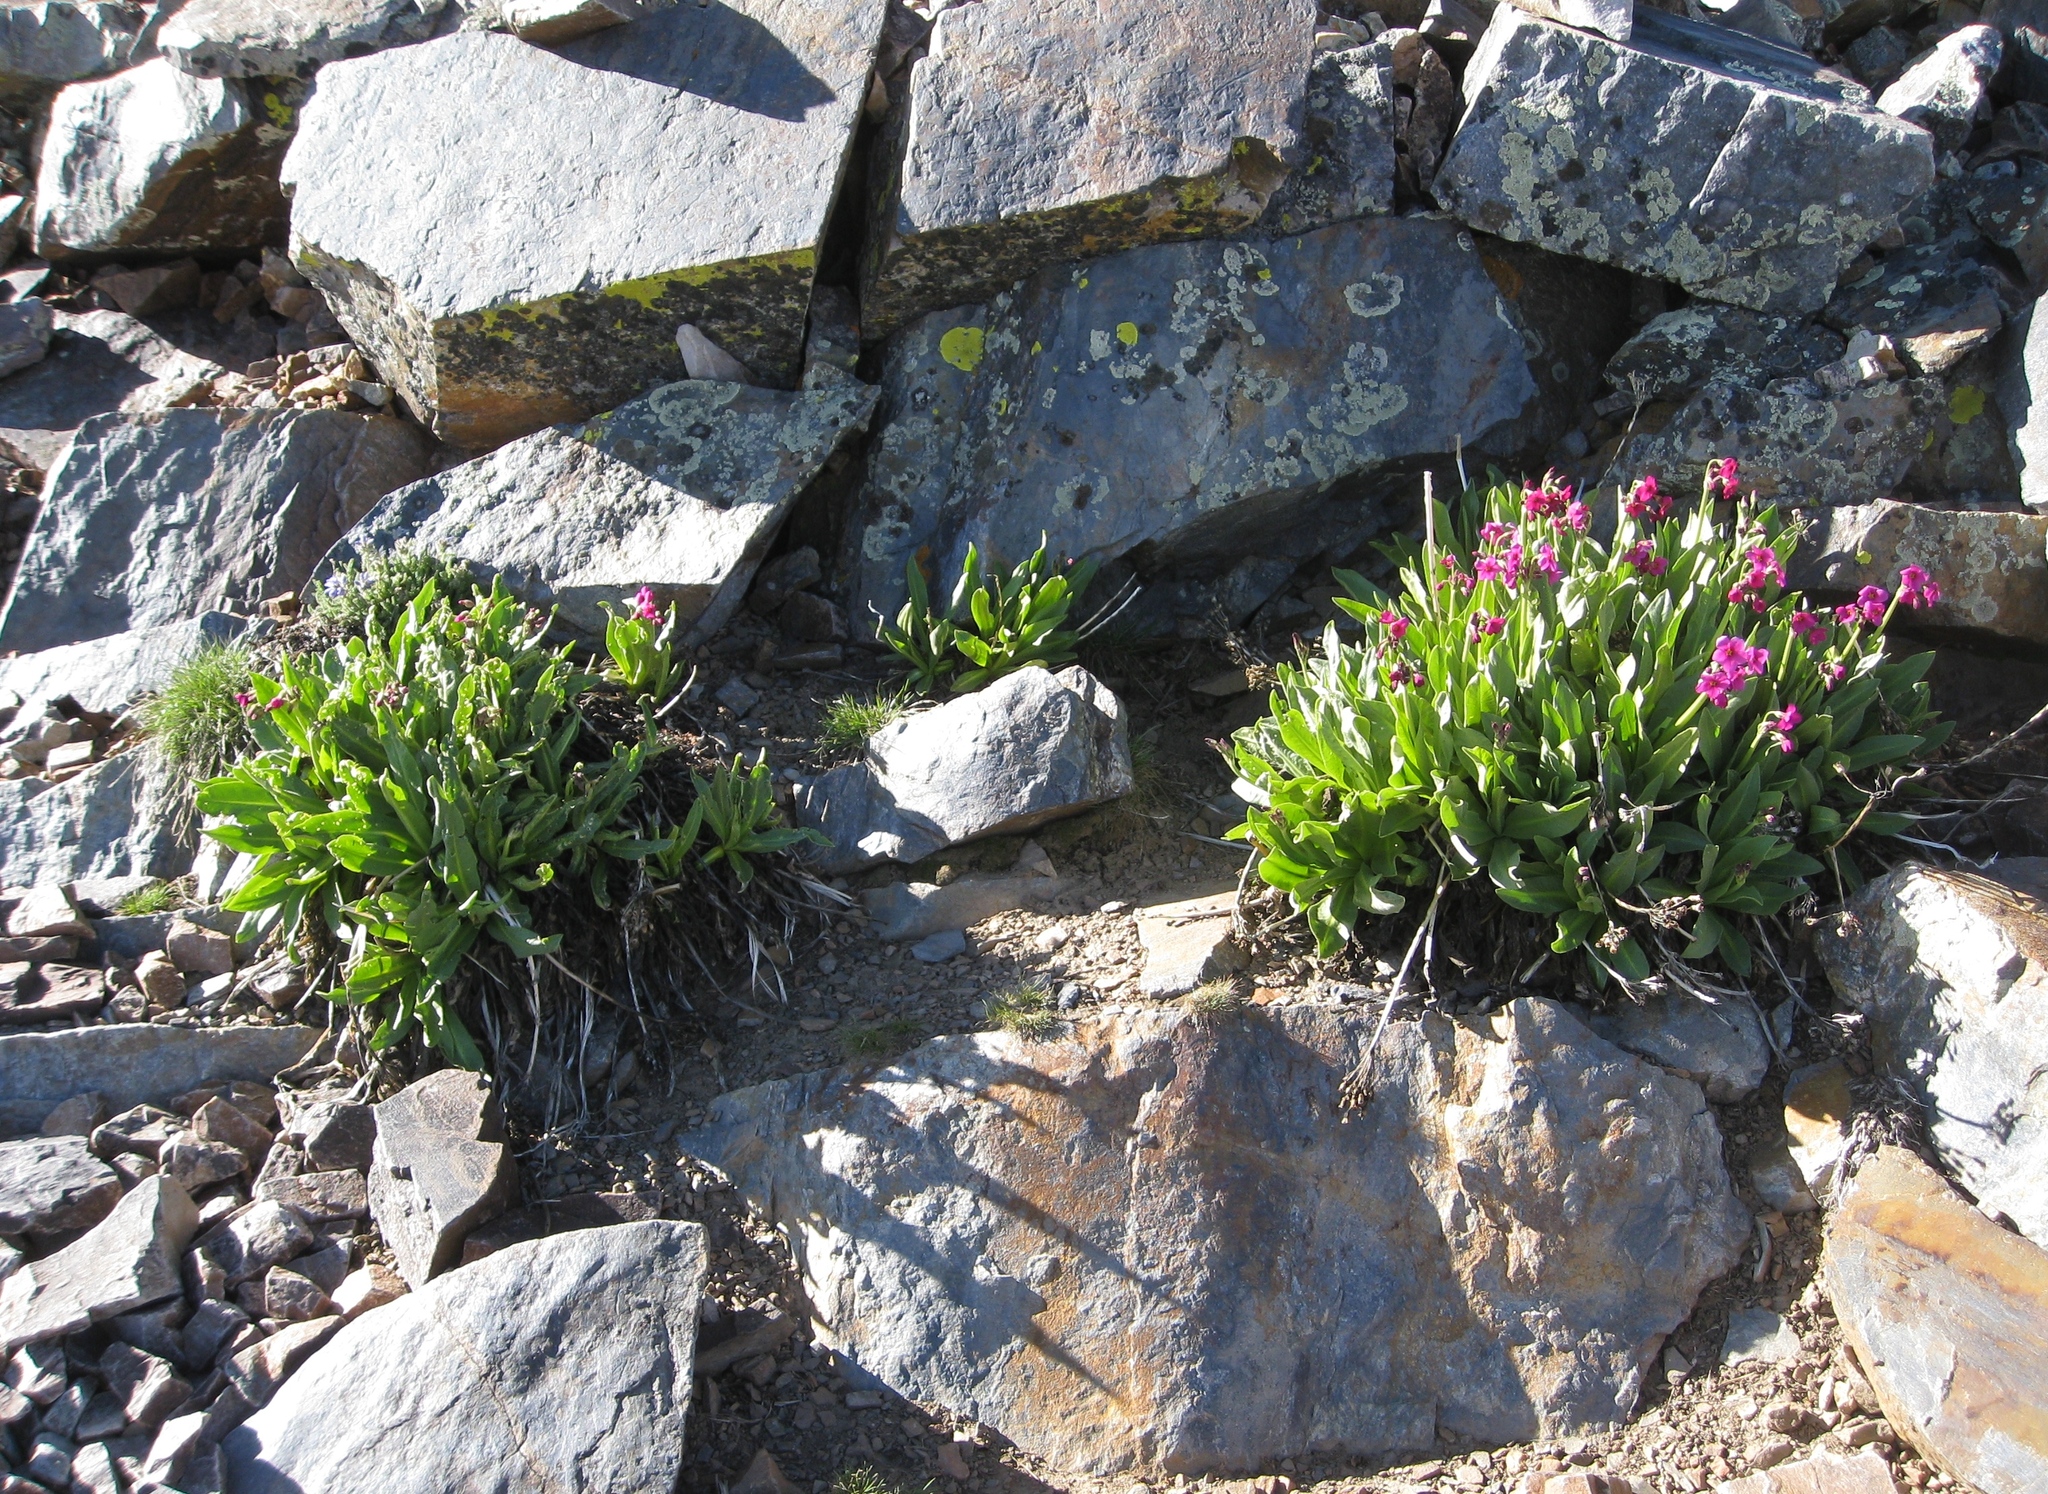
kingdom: Plantae
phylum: Tracheophyta
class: Magnoliopsida
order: Ericales
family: Primulaceae
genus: Primula
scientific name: Primula parryi
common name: Parry's primrose
